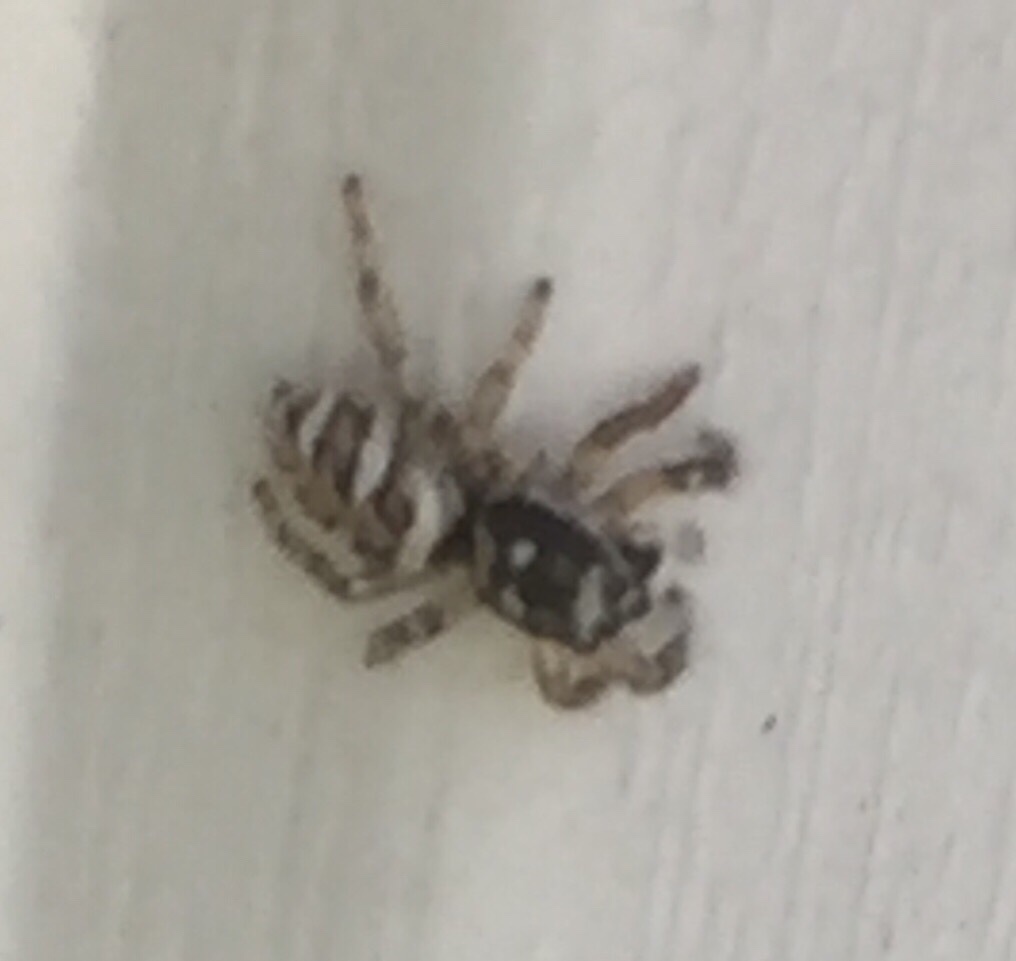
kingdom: Animalia
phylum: Arthropoda
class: Arachnida
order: Araneae
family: Salticidae
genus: Salticus
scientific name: Salticus scenicus
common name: Zebra jumper
